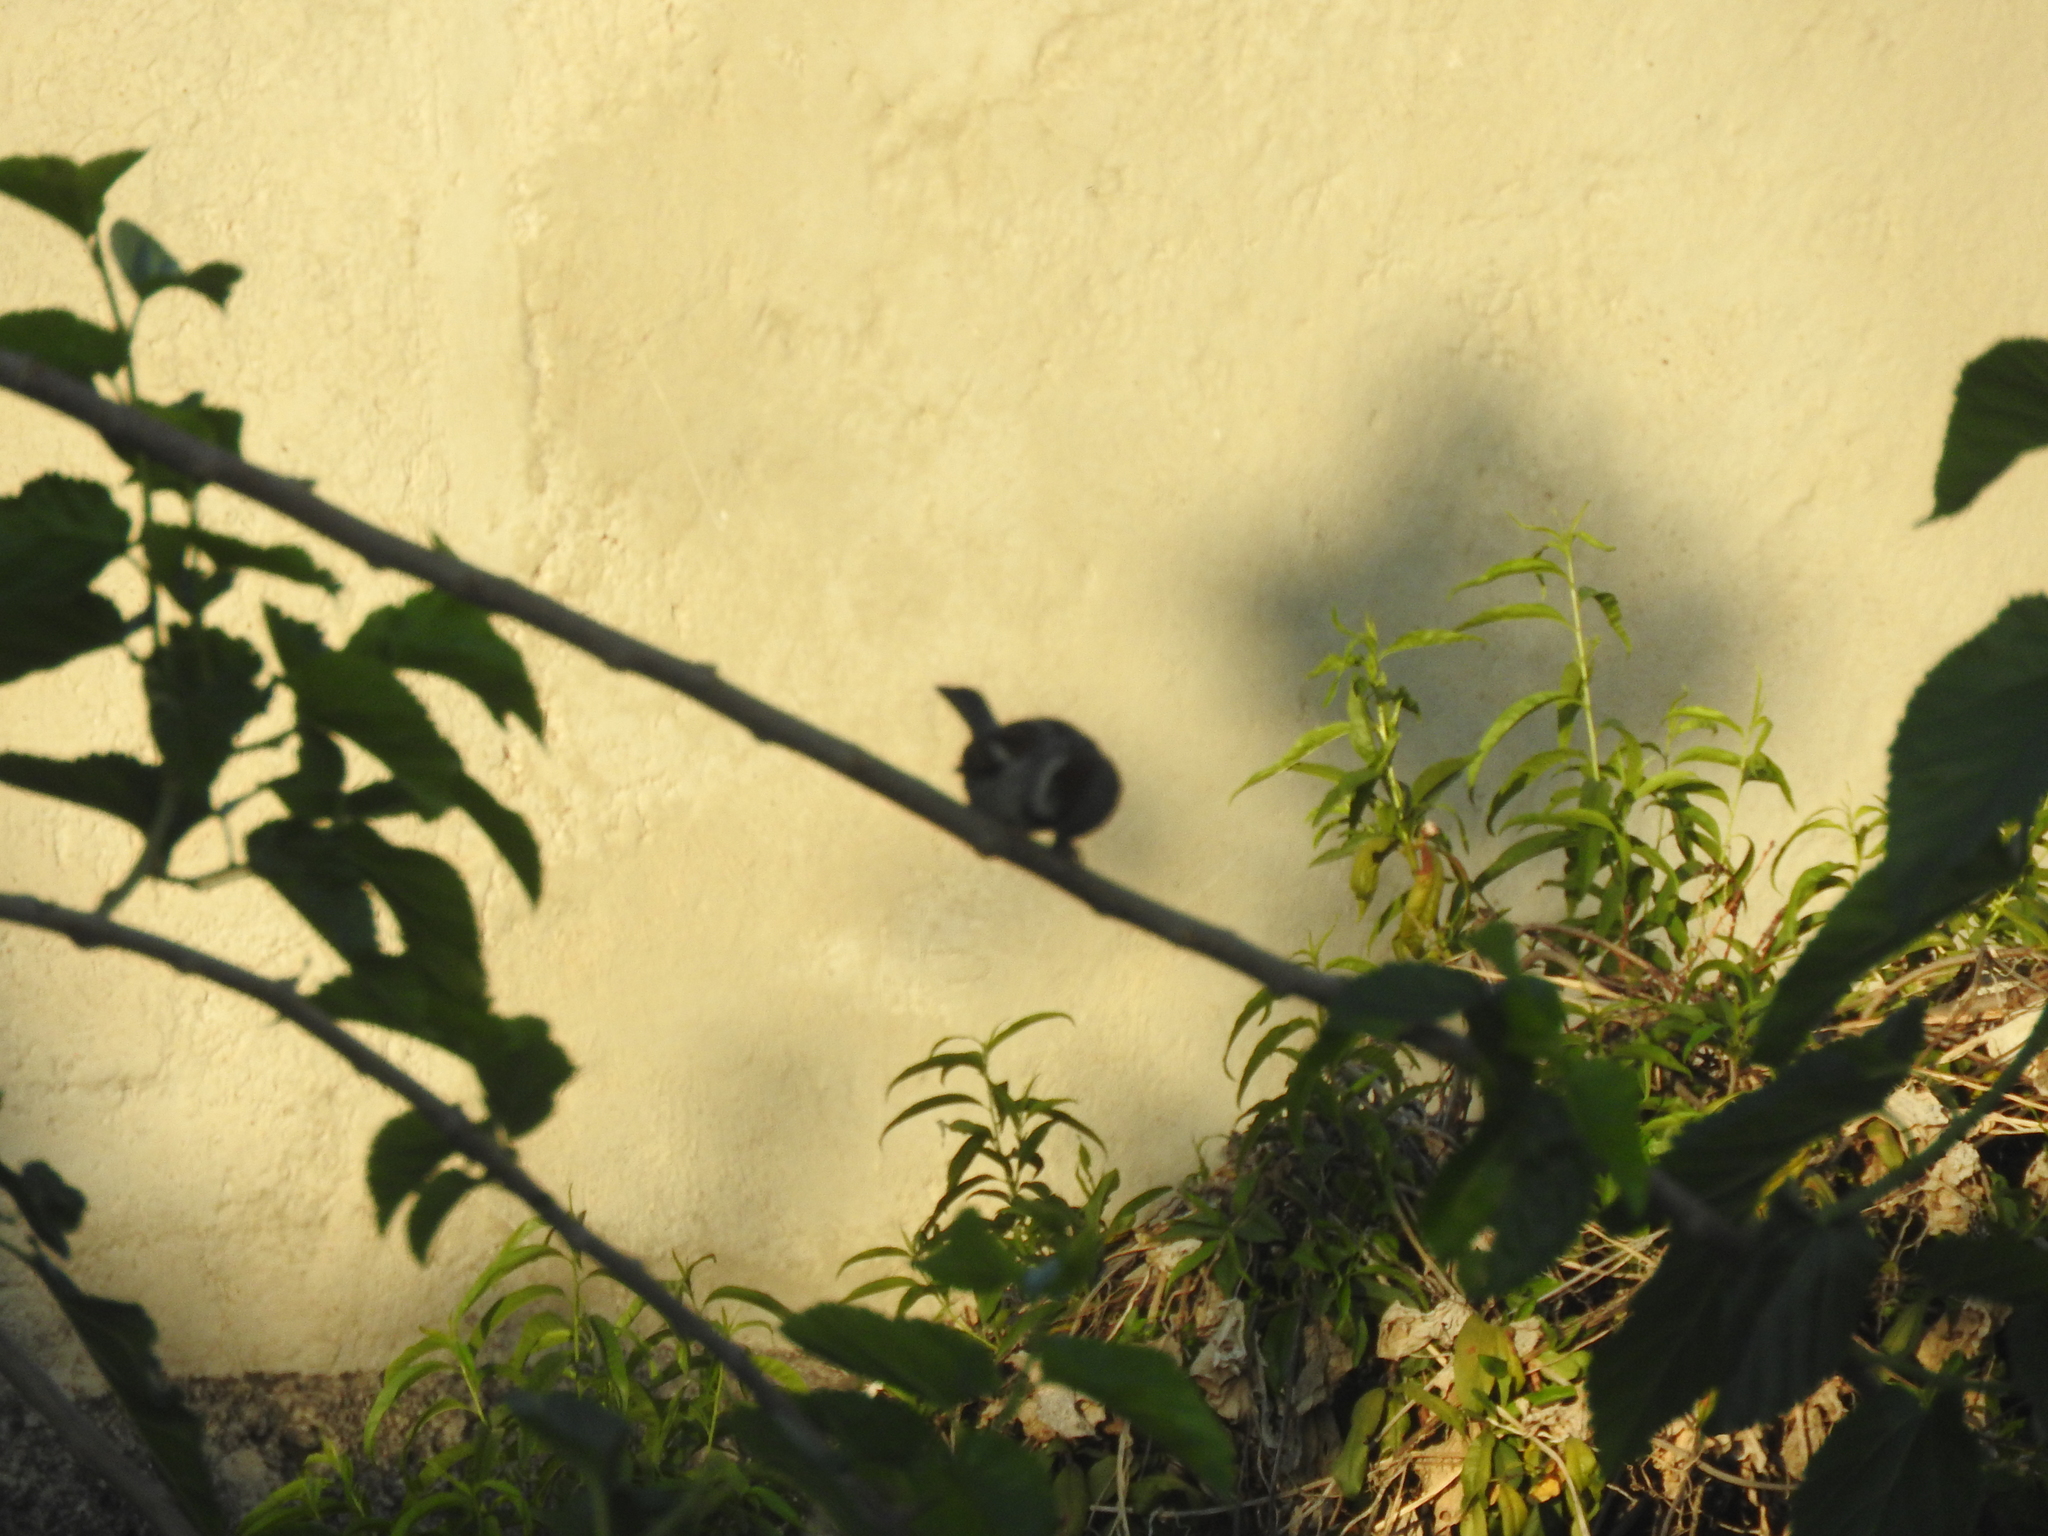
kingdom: Animalia
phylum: Chordata
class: Aves
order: Passeriformes
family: Passeridae
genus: Passer
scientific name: Passer domesticus
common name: House sparrow
